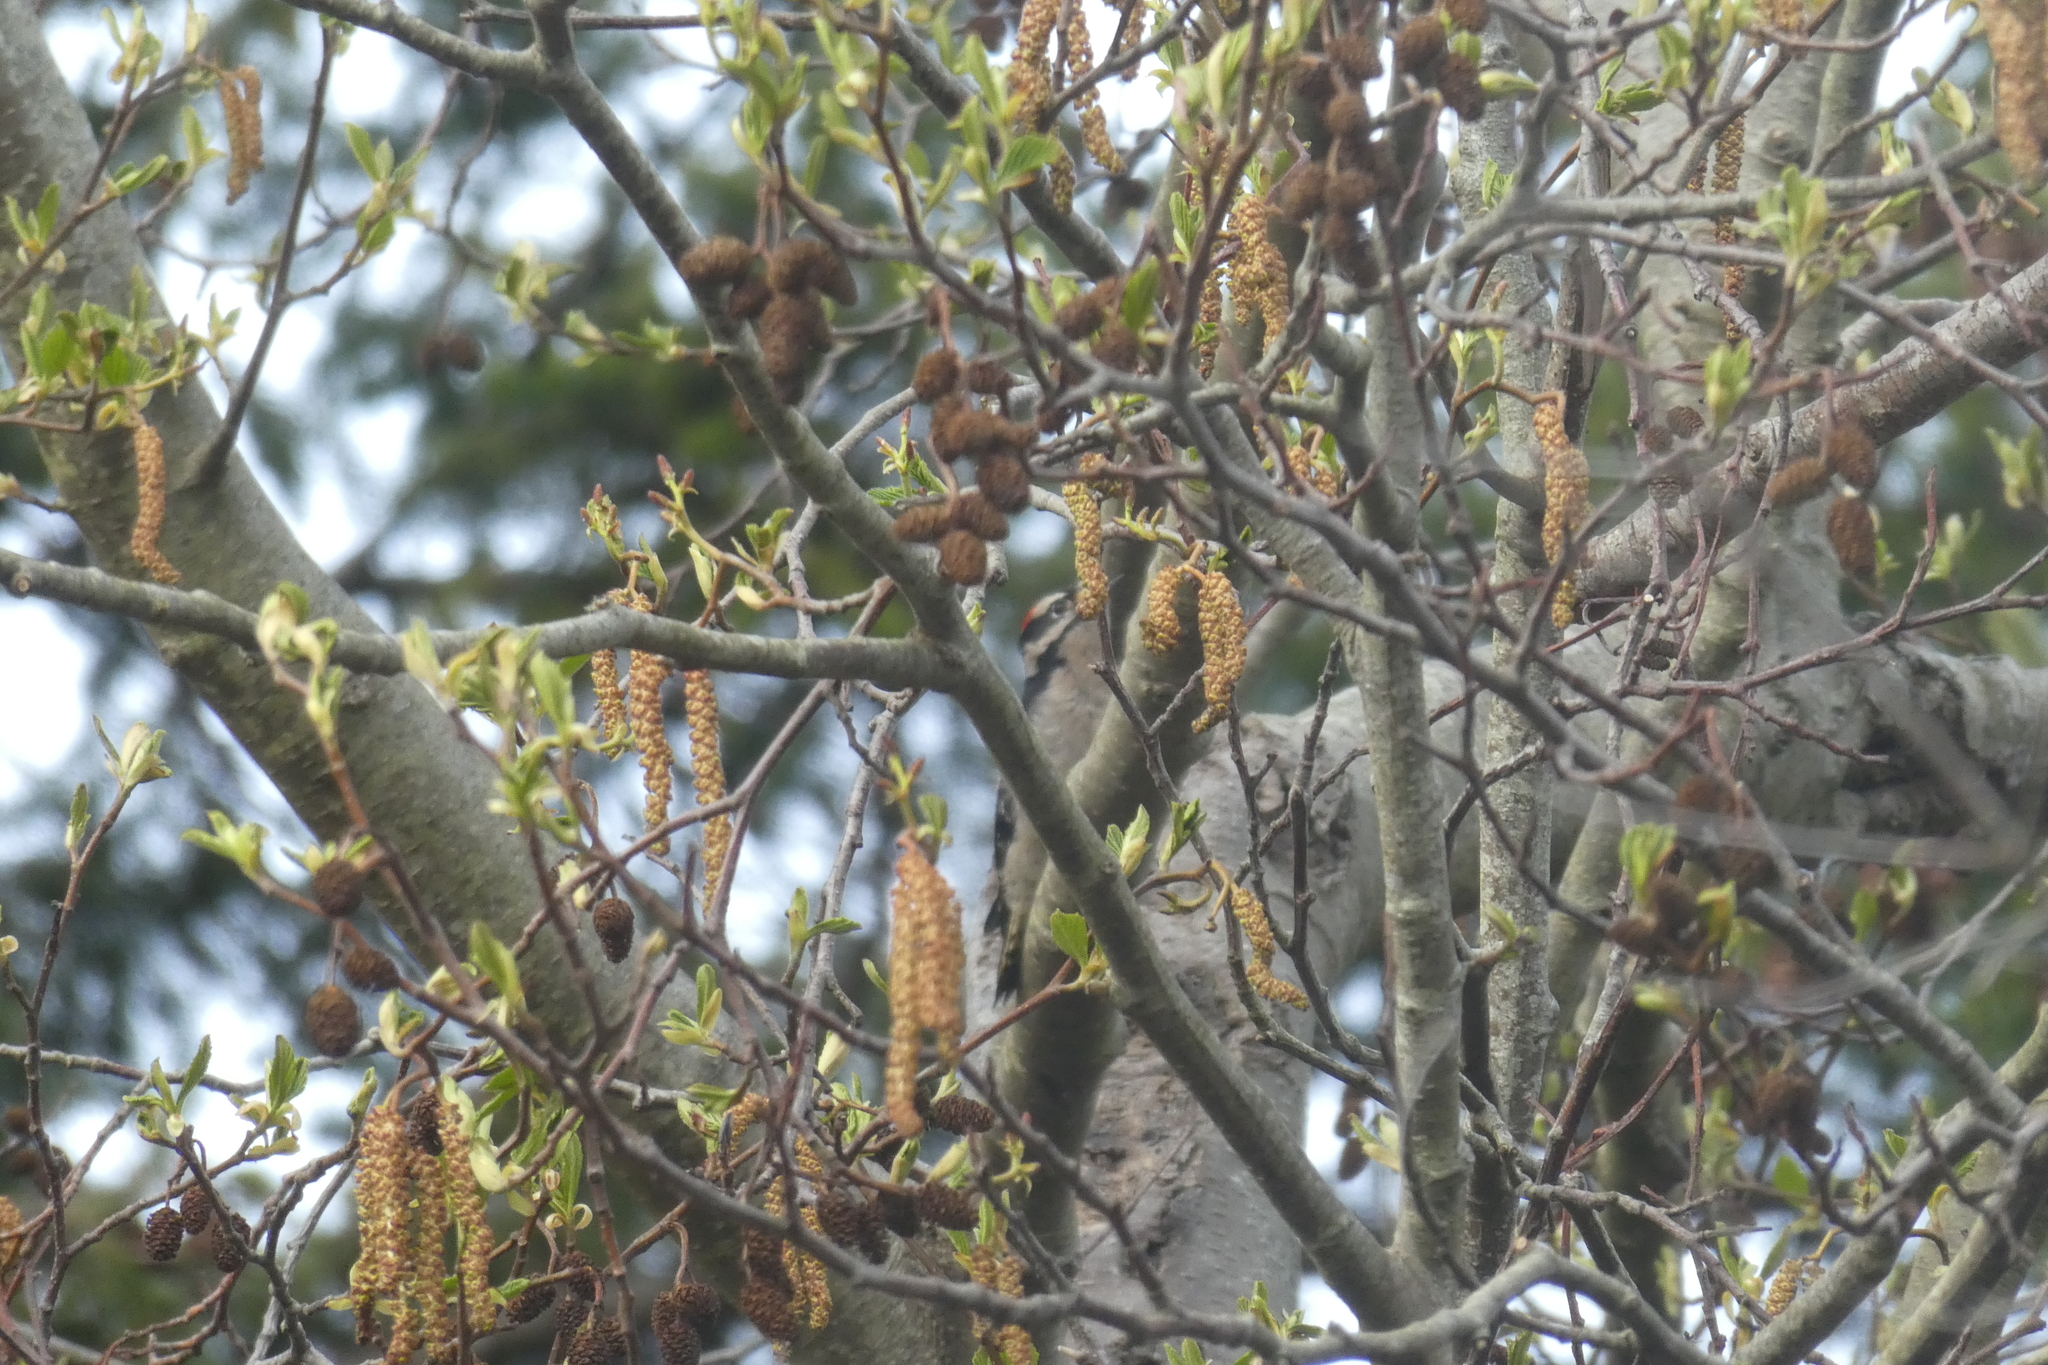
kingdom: Animalia
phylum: Chordata
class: Aves
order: Piciformes
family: Picidae
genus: Dryobates
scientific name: Dryobates pubescens
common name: Downy woodpecker
